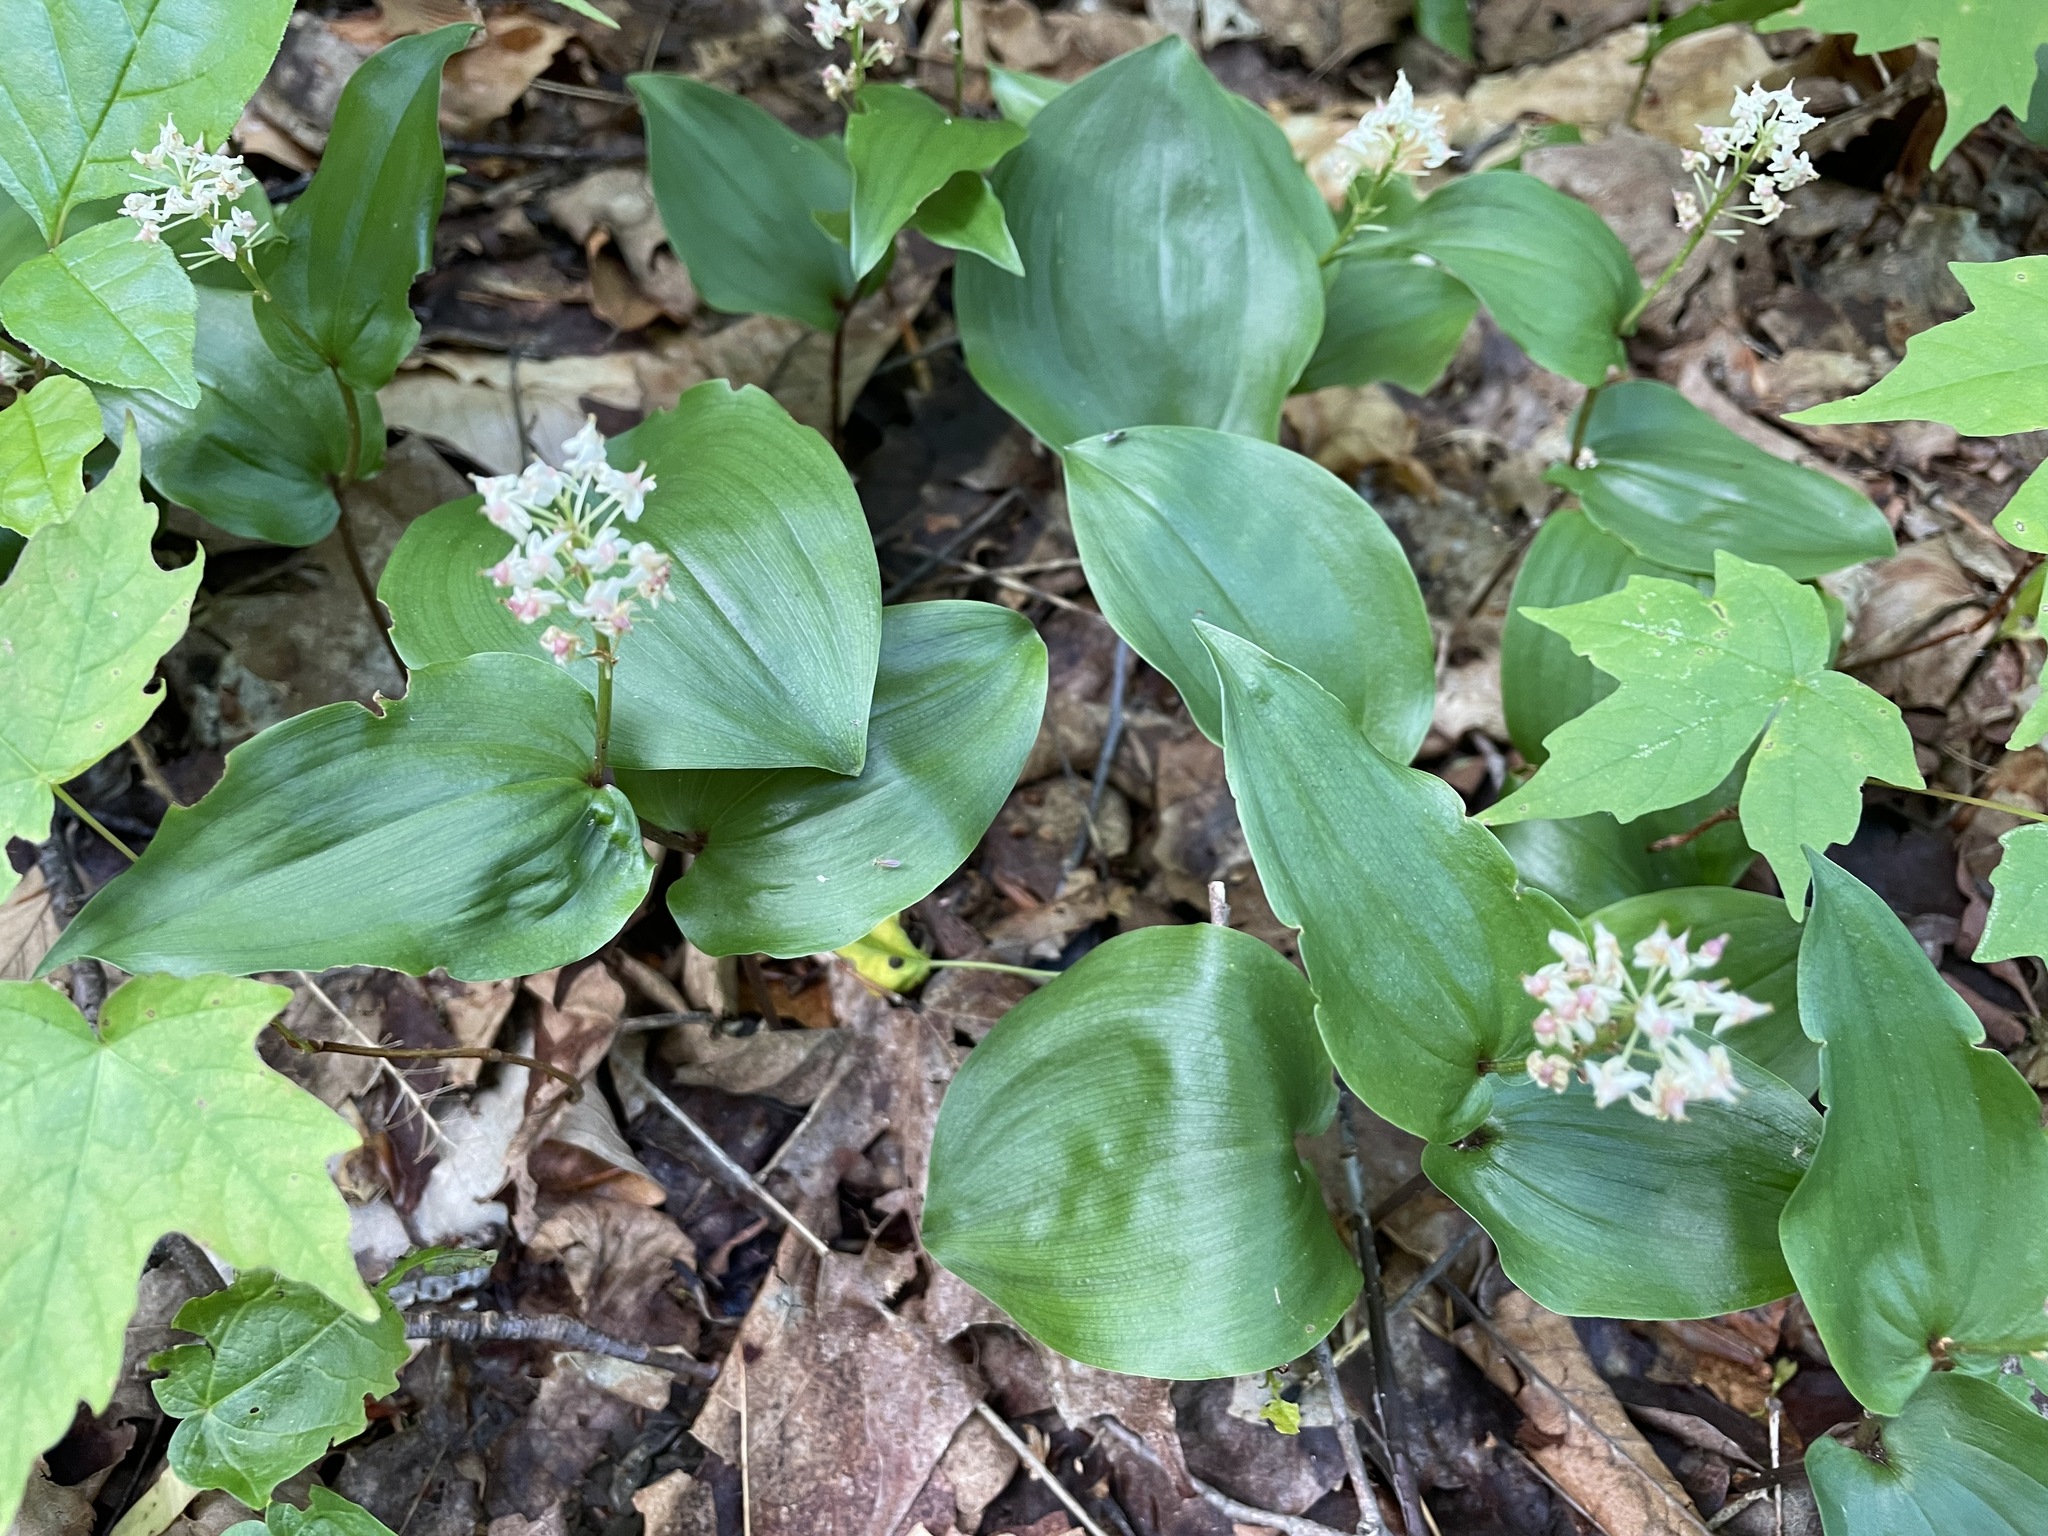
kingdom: Plantae
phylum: Tracheophyta
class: Liliopsida
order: Asparagales
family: Asparagaceae
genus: Maianthemum
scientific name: Maianthemum canadense
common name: False lily-of-the-valley
